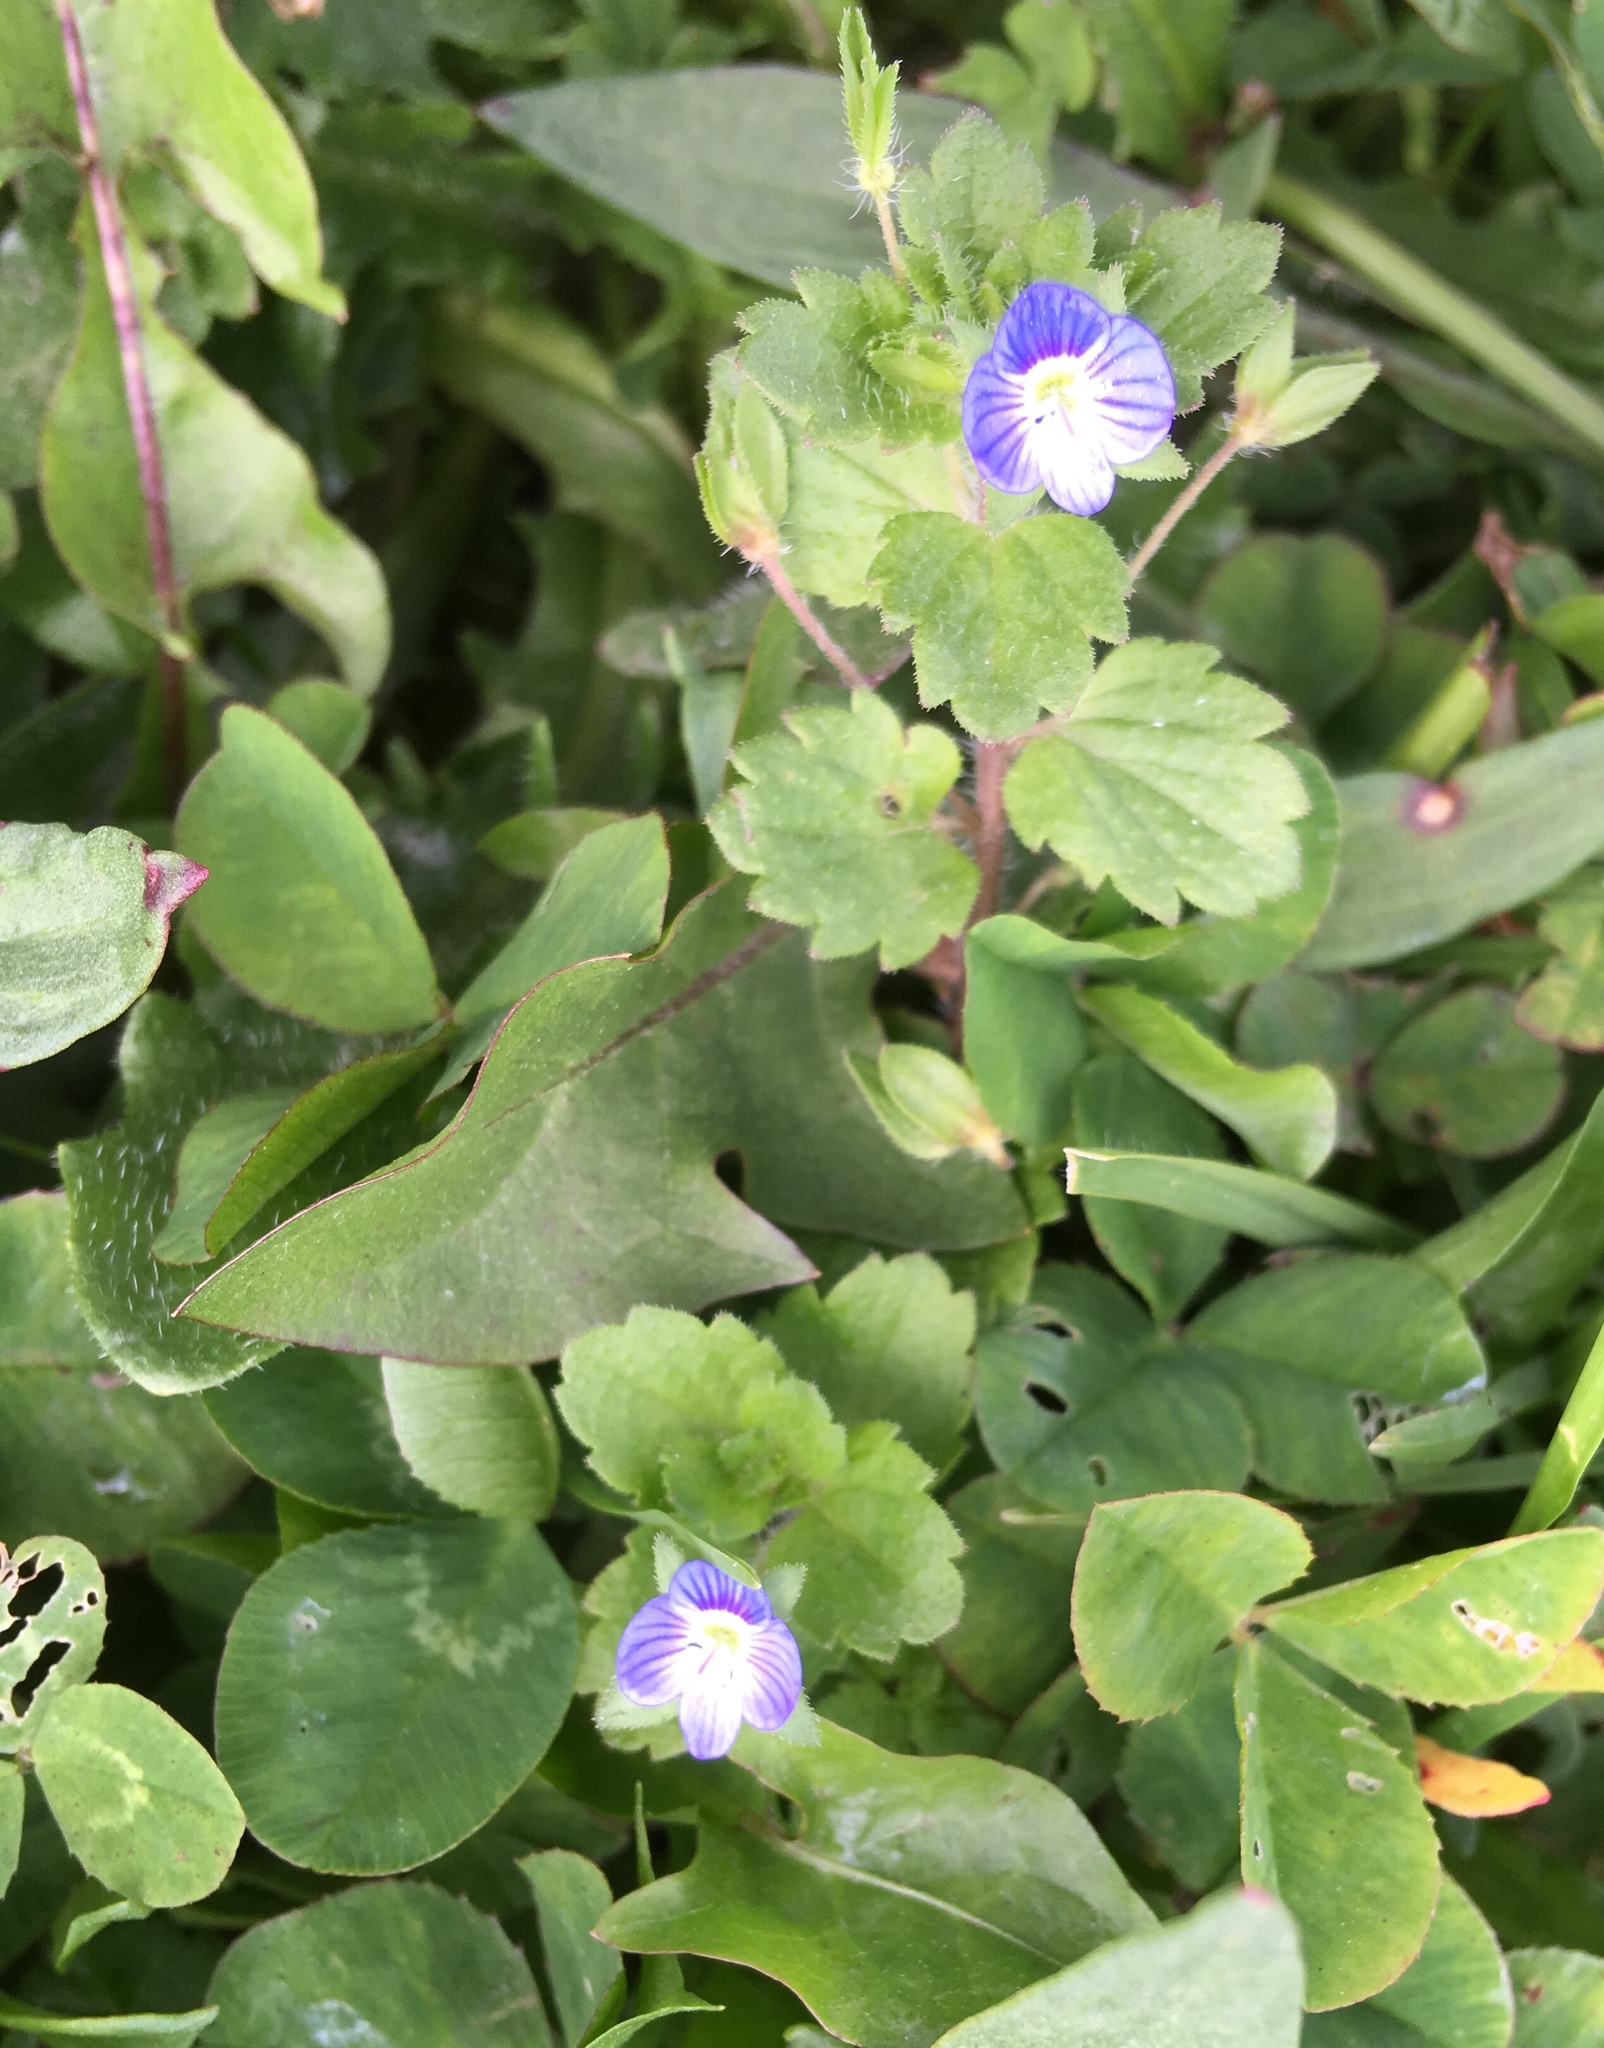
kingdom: Plantae
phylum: Tracheophyta
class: Magnoliopsida
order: Lamiales
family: Plantaginaceae
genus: Veronica
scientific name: Veronica persica
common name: Common field-speedwell
